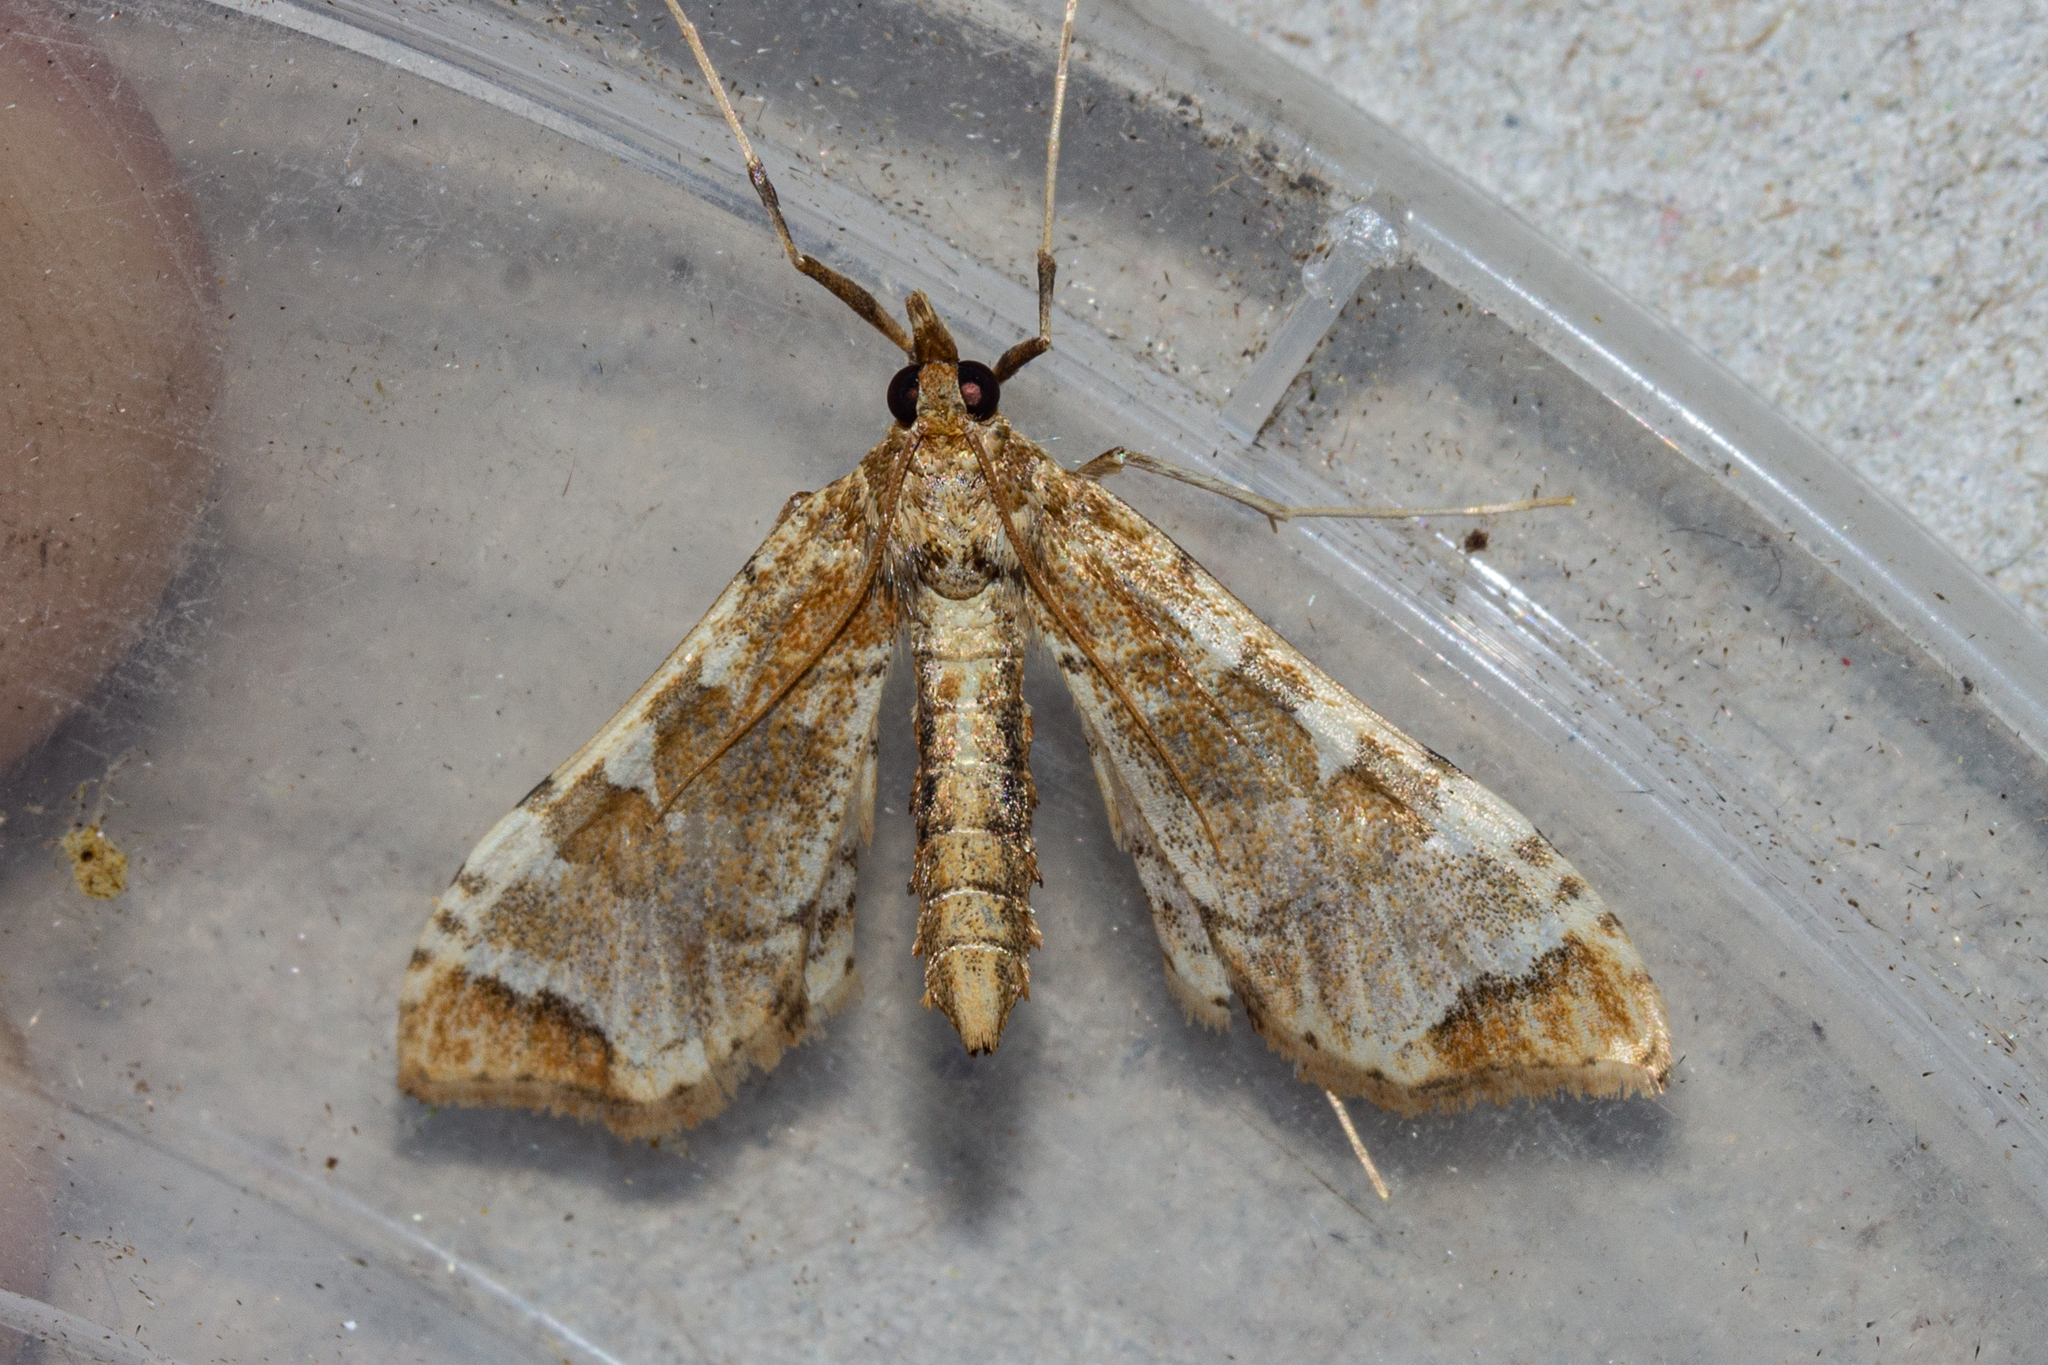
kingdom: Animalia
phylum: Arthropoda
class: Insecta
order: Lepidoptera
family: Crambidae
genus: Sceliodes
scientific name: Sceliodes cordalis
